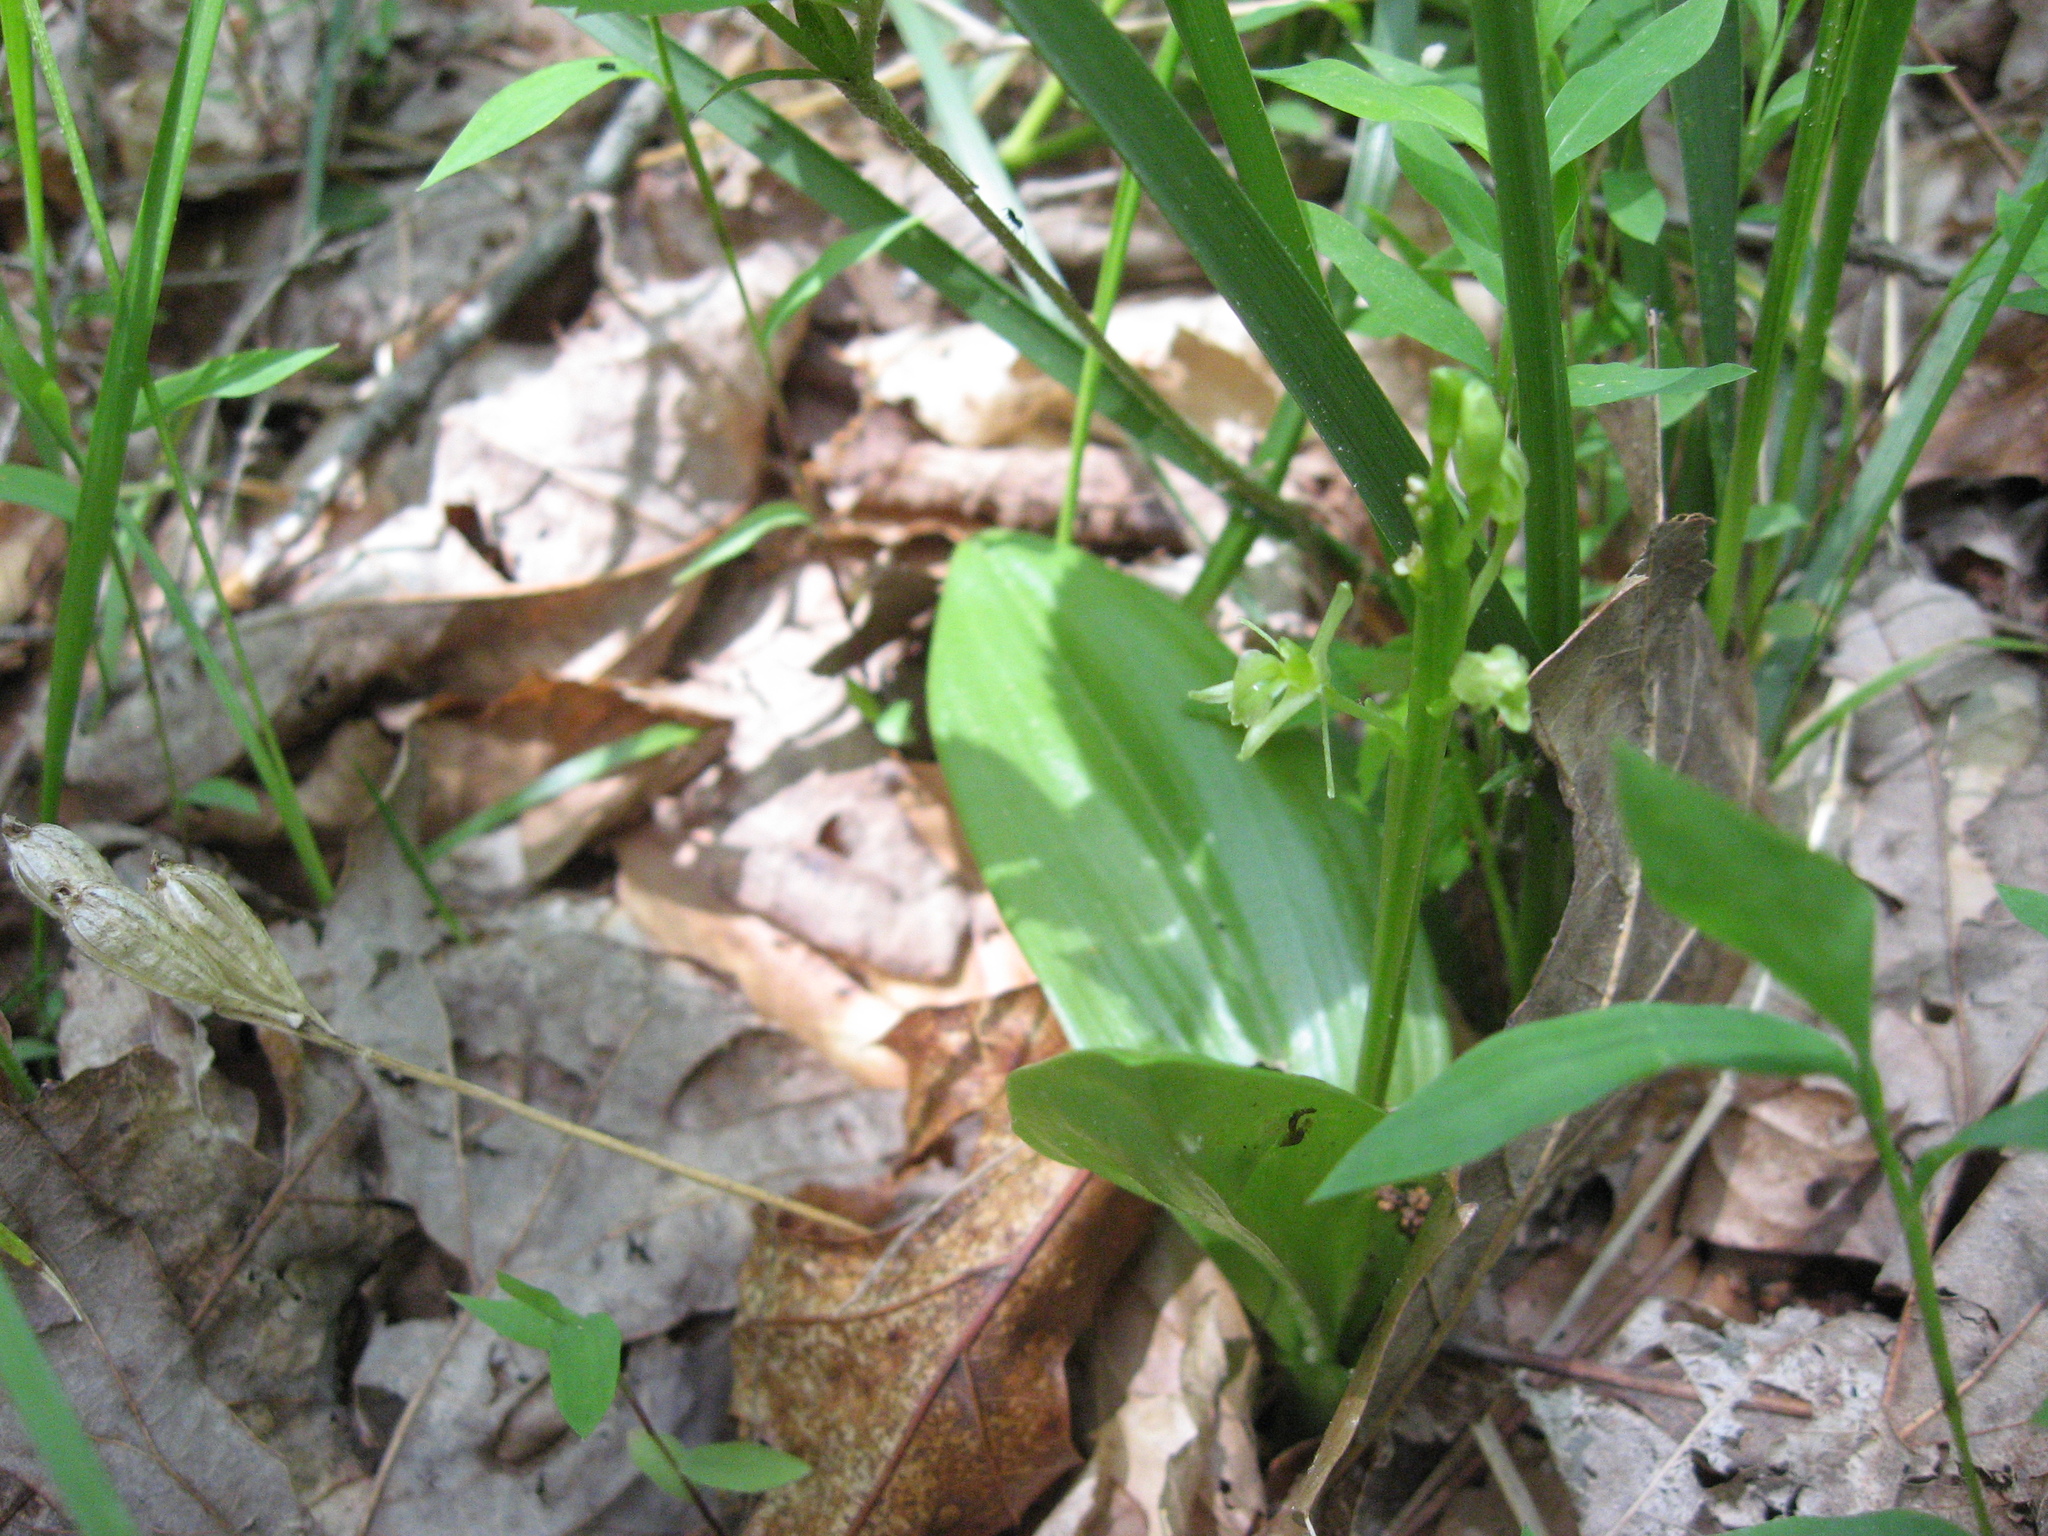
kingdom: Animalia
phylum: Arthropoda
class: Insecta
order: Coleoptera
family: Curculionidae
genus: Liparis
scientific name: Liparis loeselii
